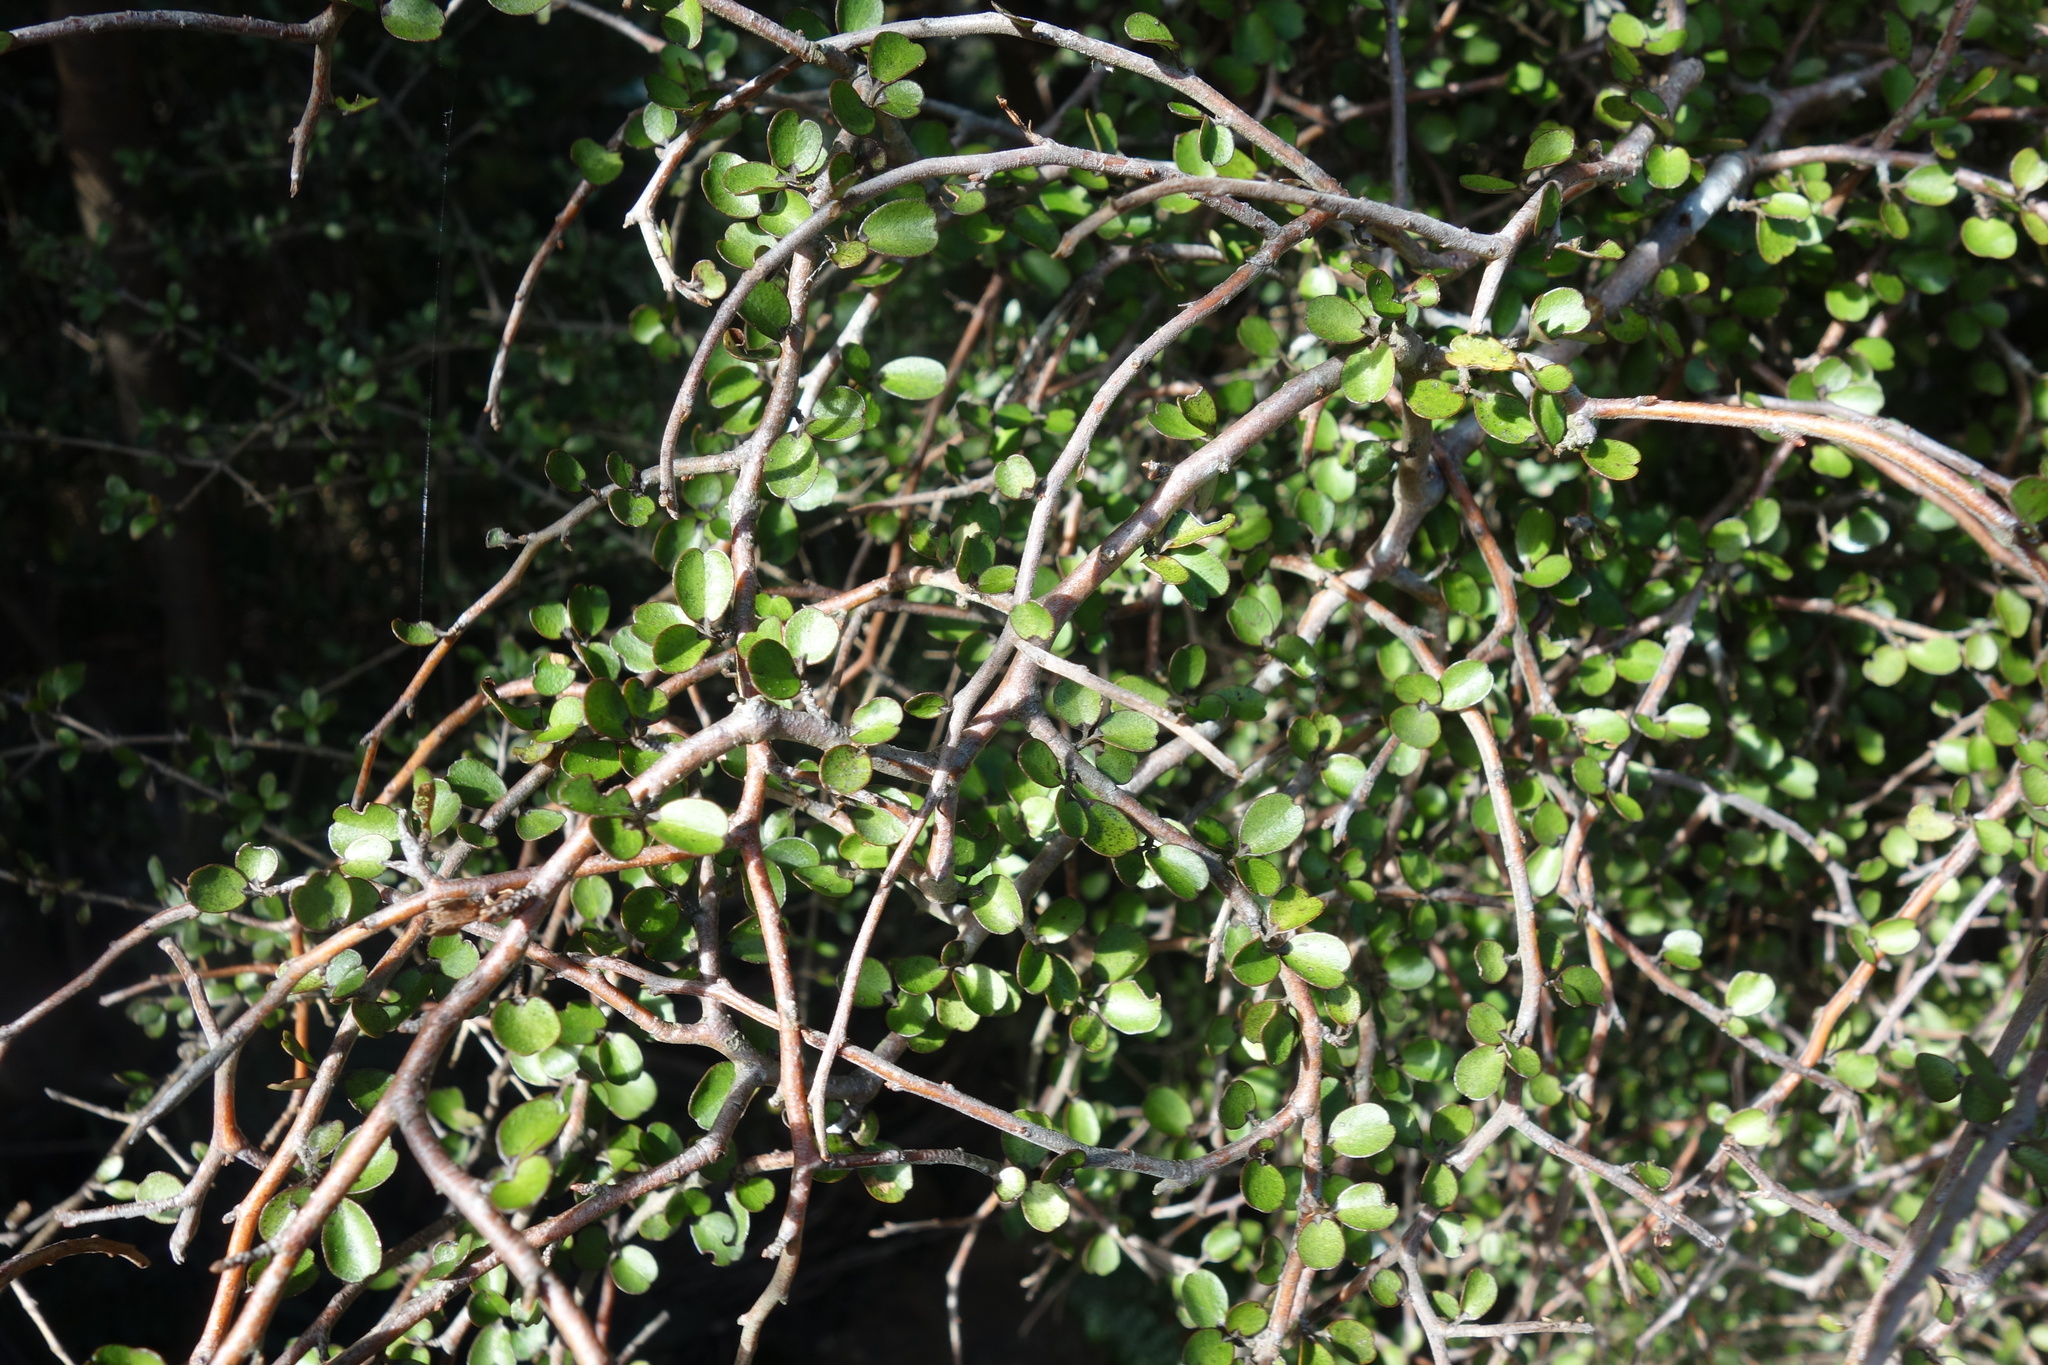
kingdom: Plantae
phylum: Tracheophyta
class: Magnoliopsida
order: Ericales
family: Primulaceae
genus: Myrsine
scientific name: Myrsine divaricata
